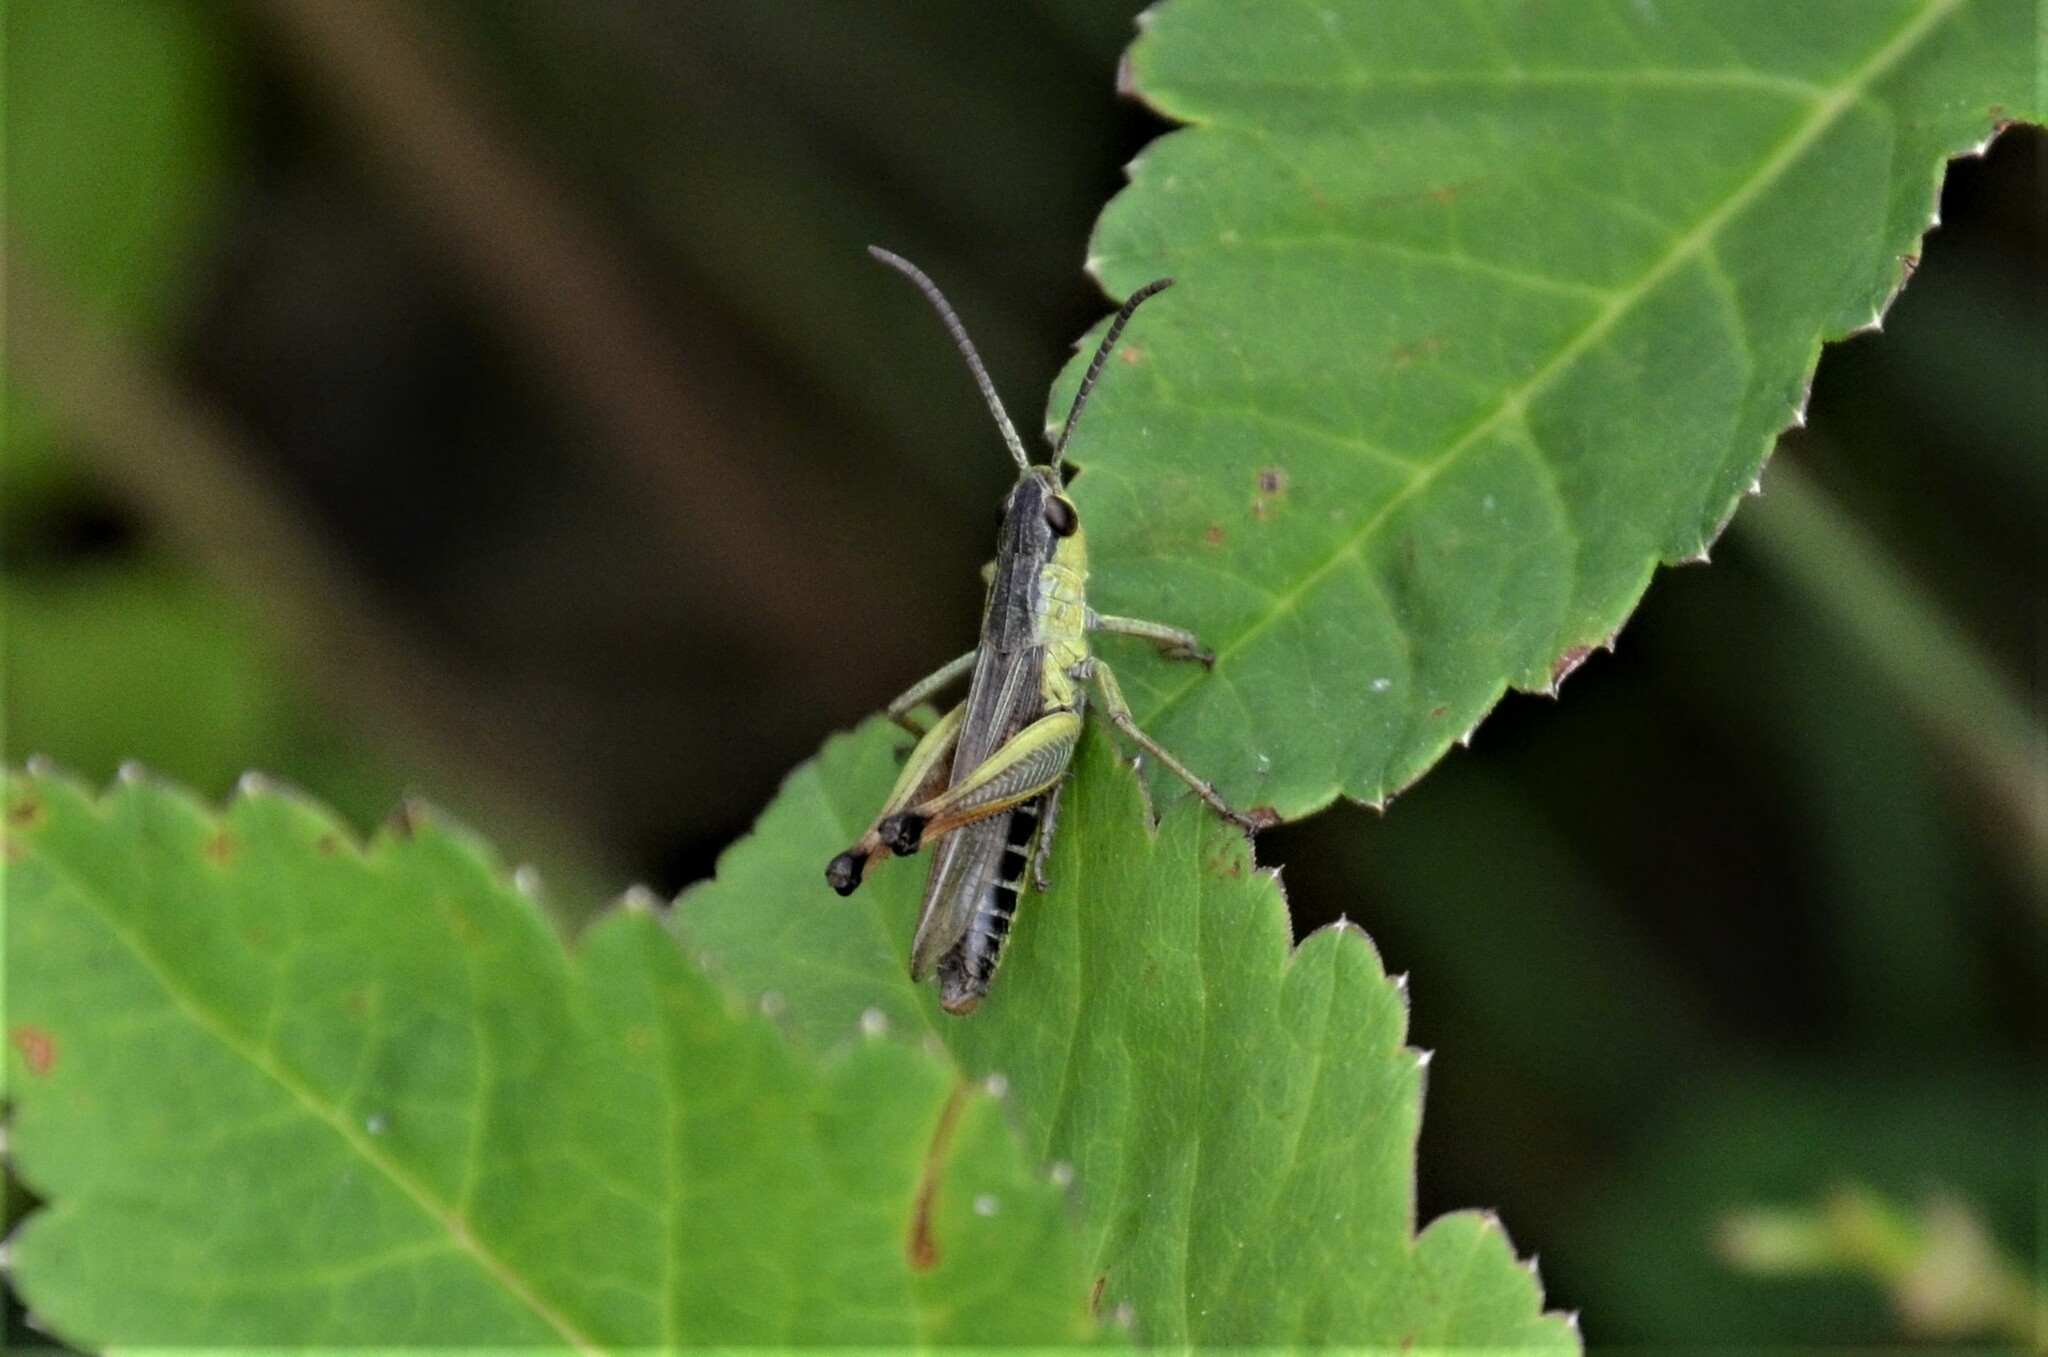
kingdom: Animalia
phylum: Arthropoda
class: Insecta
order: Orthoptera
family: Acrididae
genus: Pseudochorthippus
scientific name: Pseudochorthippus parallelus
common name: Meadow grasshopper
